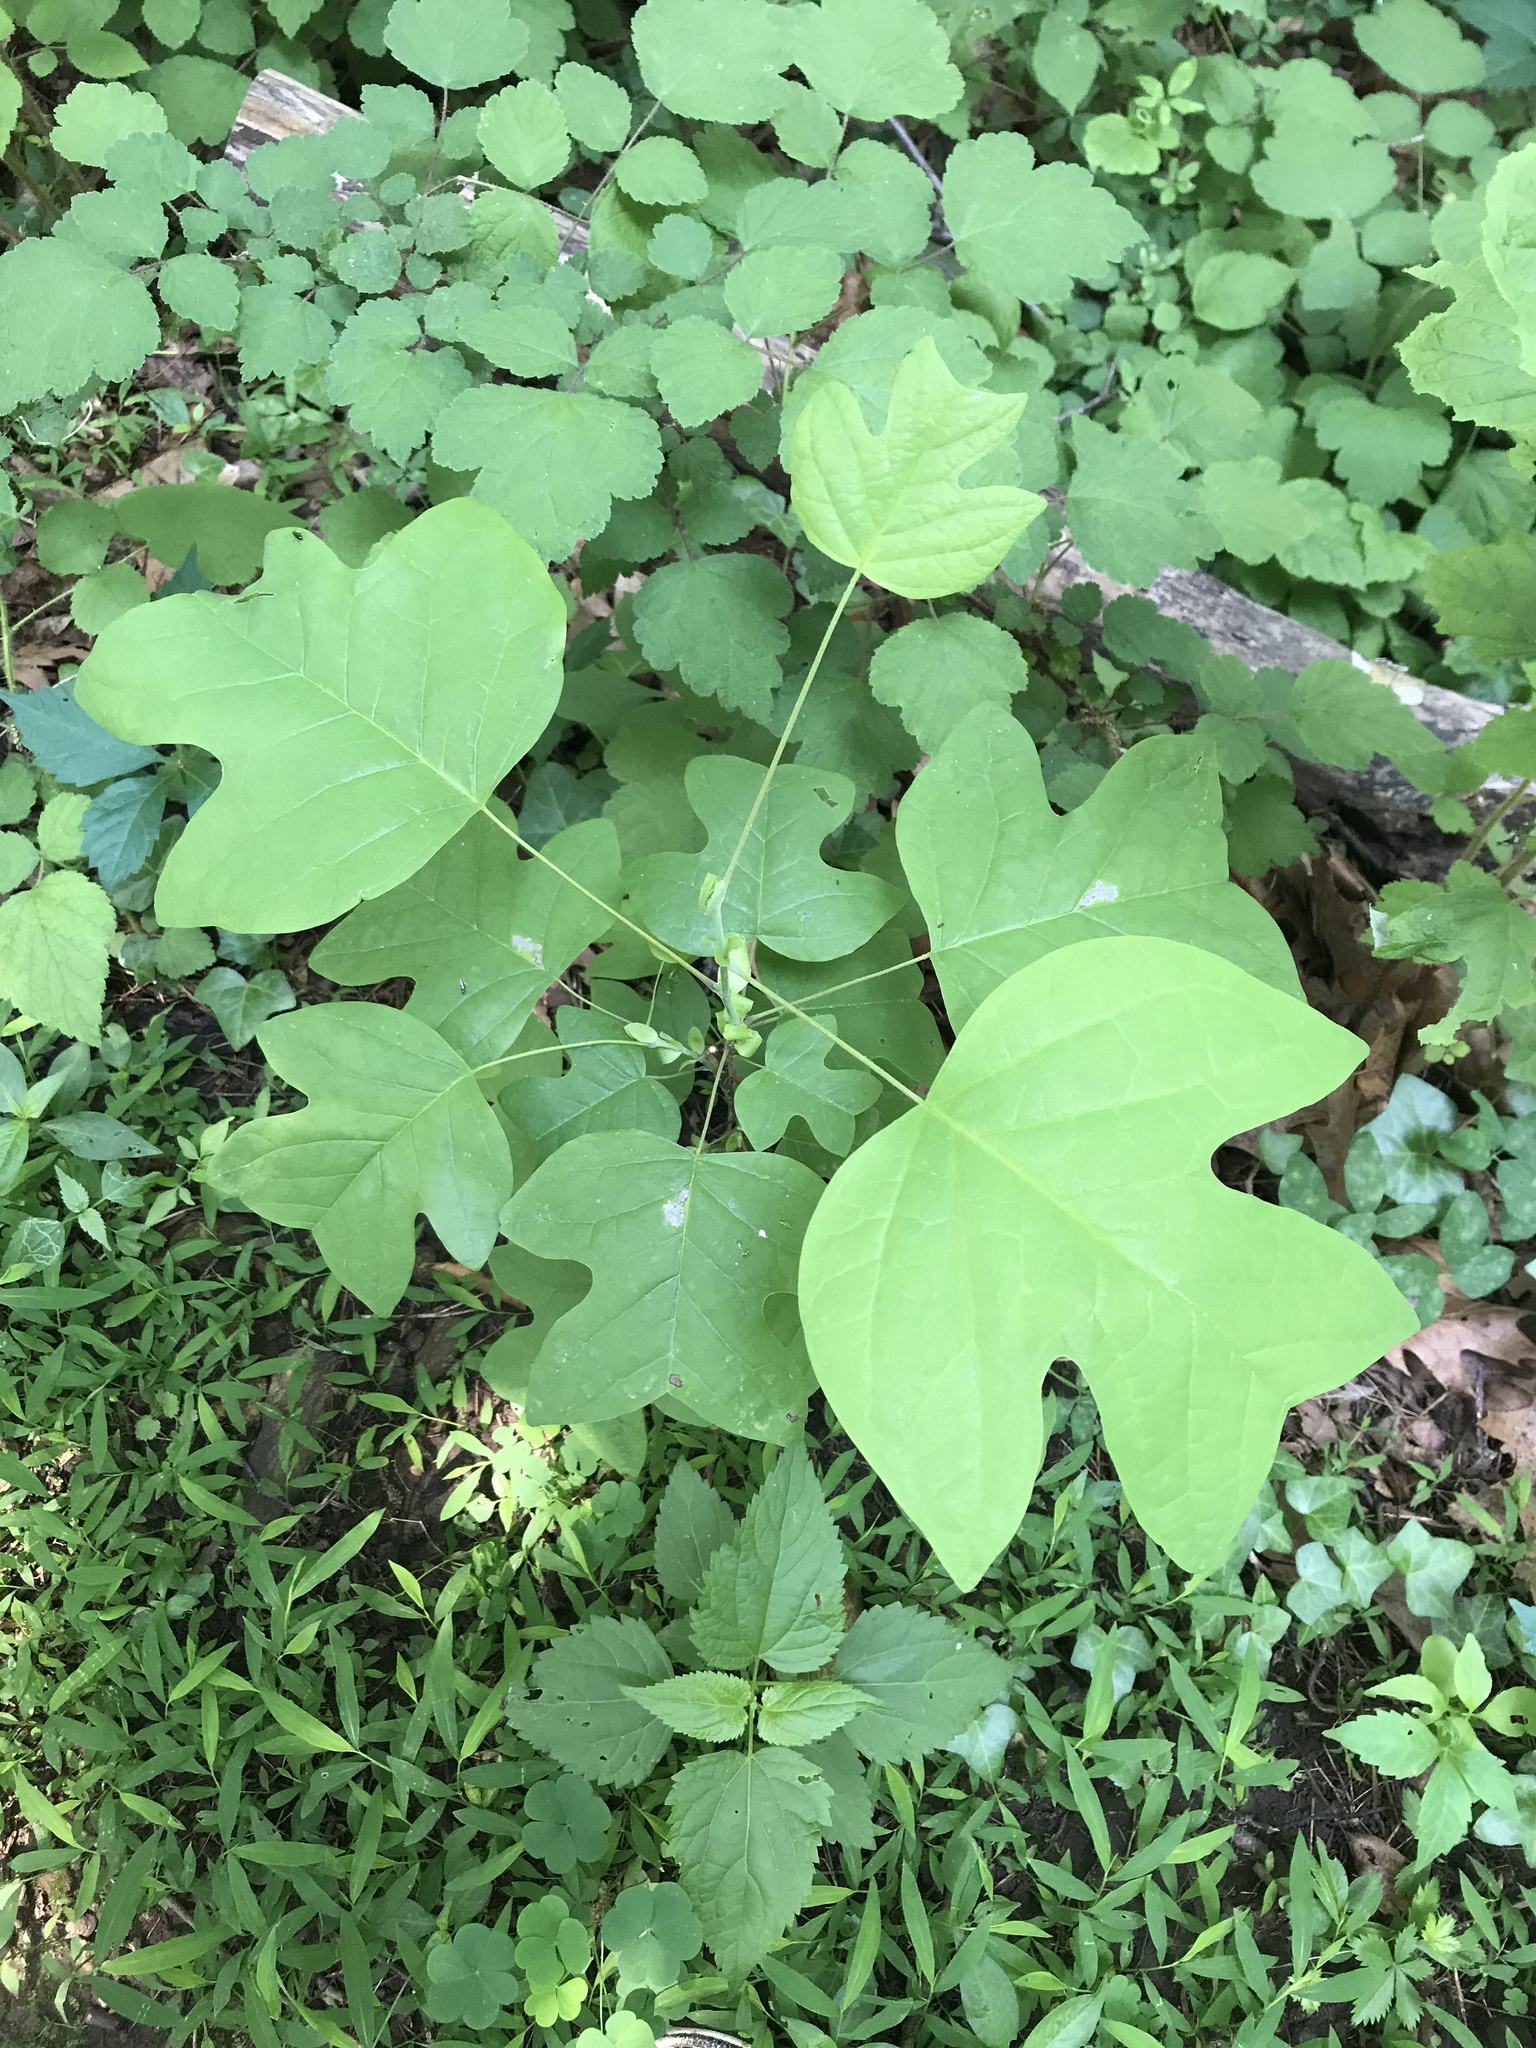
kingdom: Plantae
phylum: Tracheophyta
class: Magnoliopsida
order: Magnoliales
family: Magnoliaceae
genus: Liriodendron
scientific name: Liriodendron tulipifera
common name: Tulip tree
